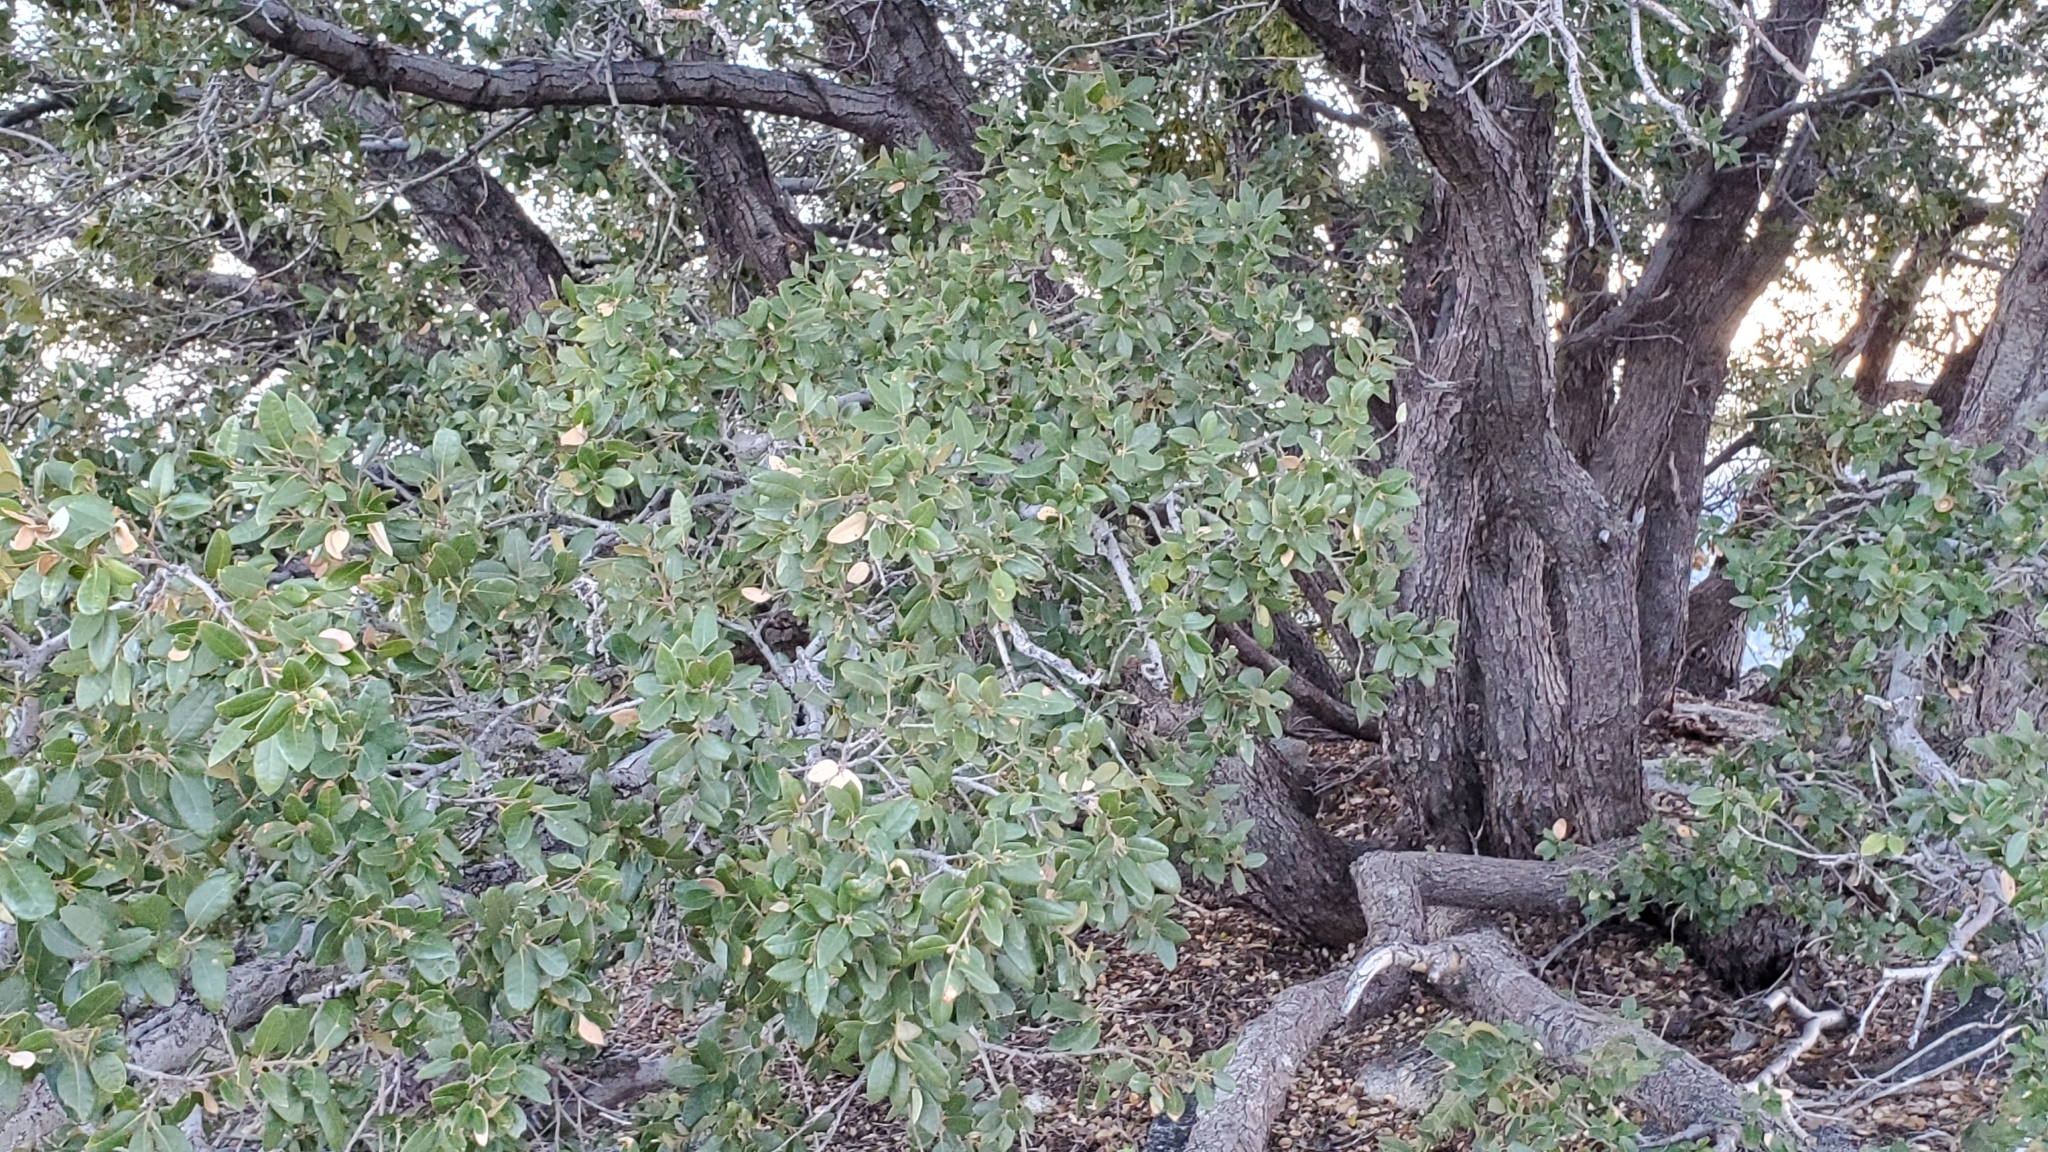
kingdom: Plantae
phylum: Tracheophyta
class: Magnoliopsida
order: Fagales
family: Fagaceae
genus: Quercus
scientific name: Quercus chrysolepis
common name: Canyon live oak
